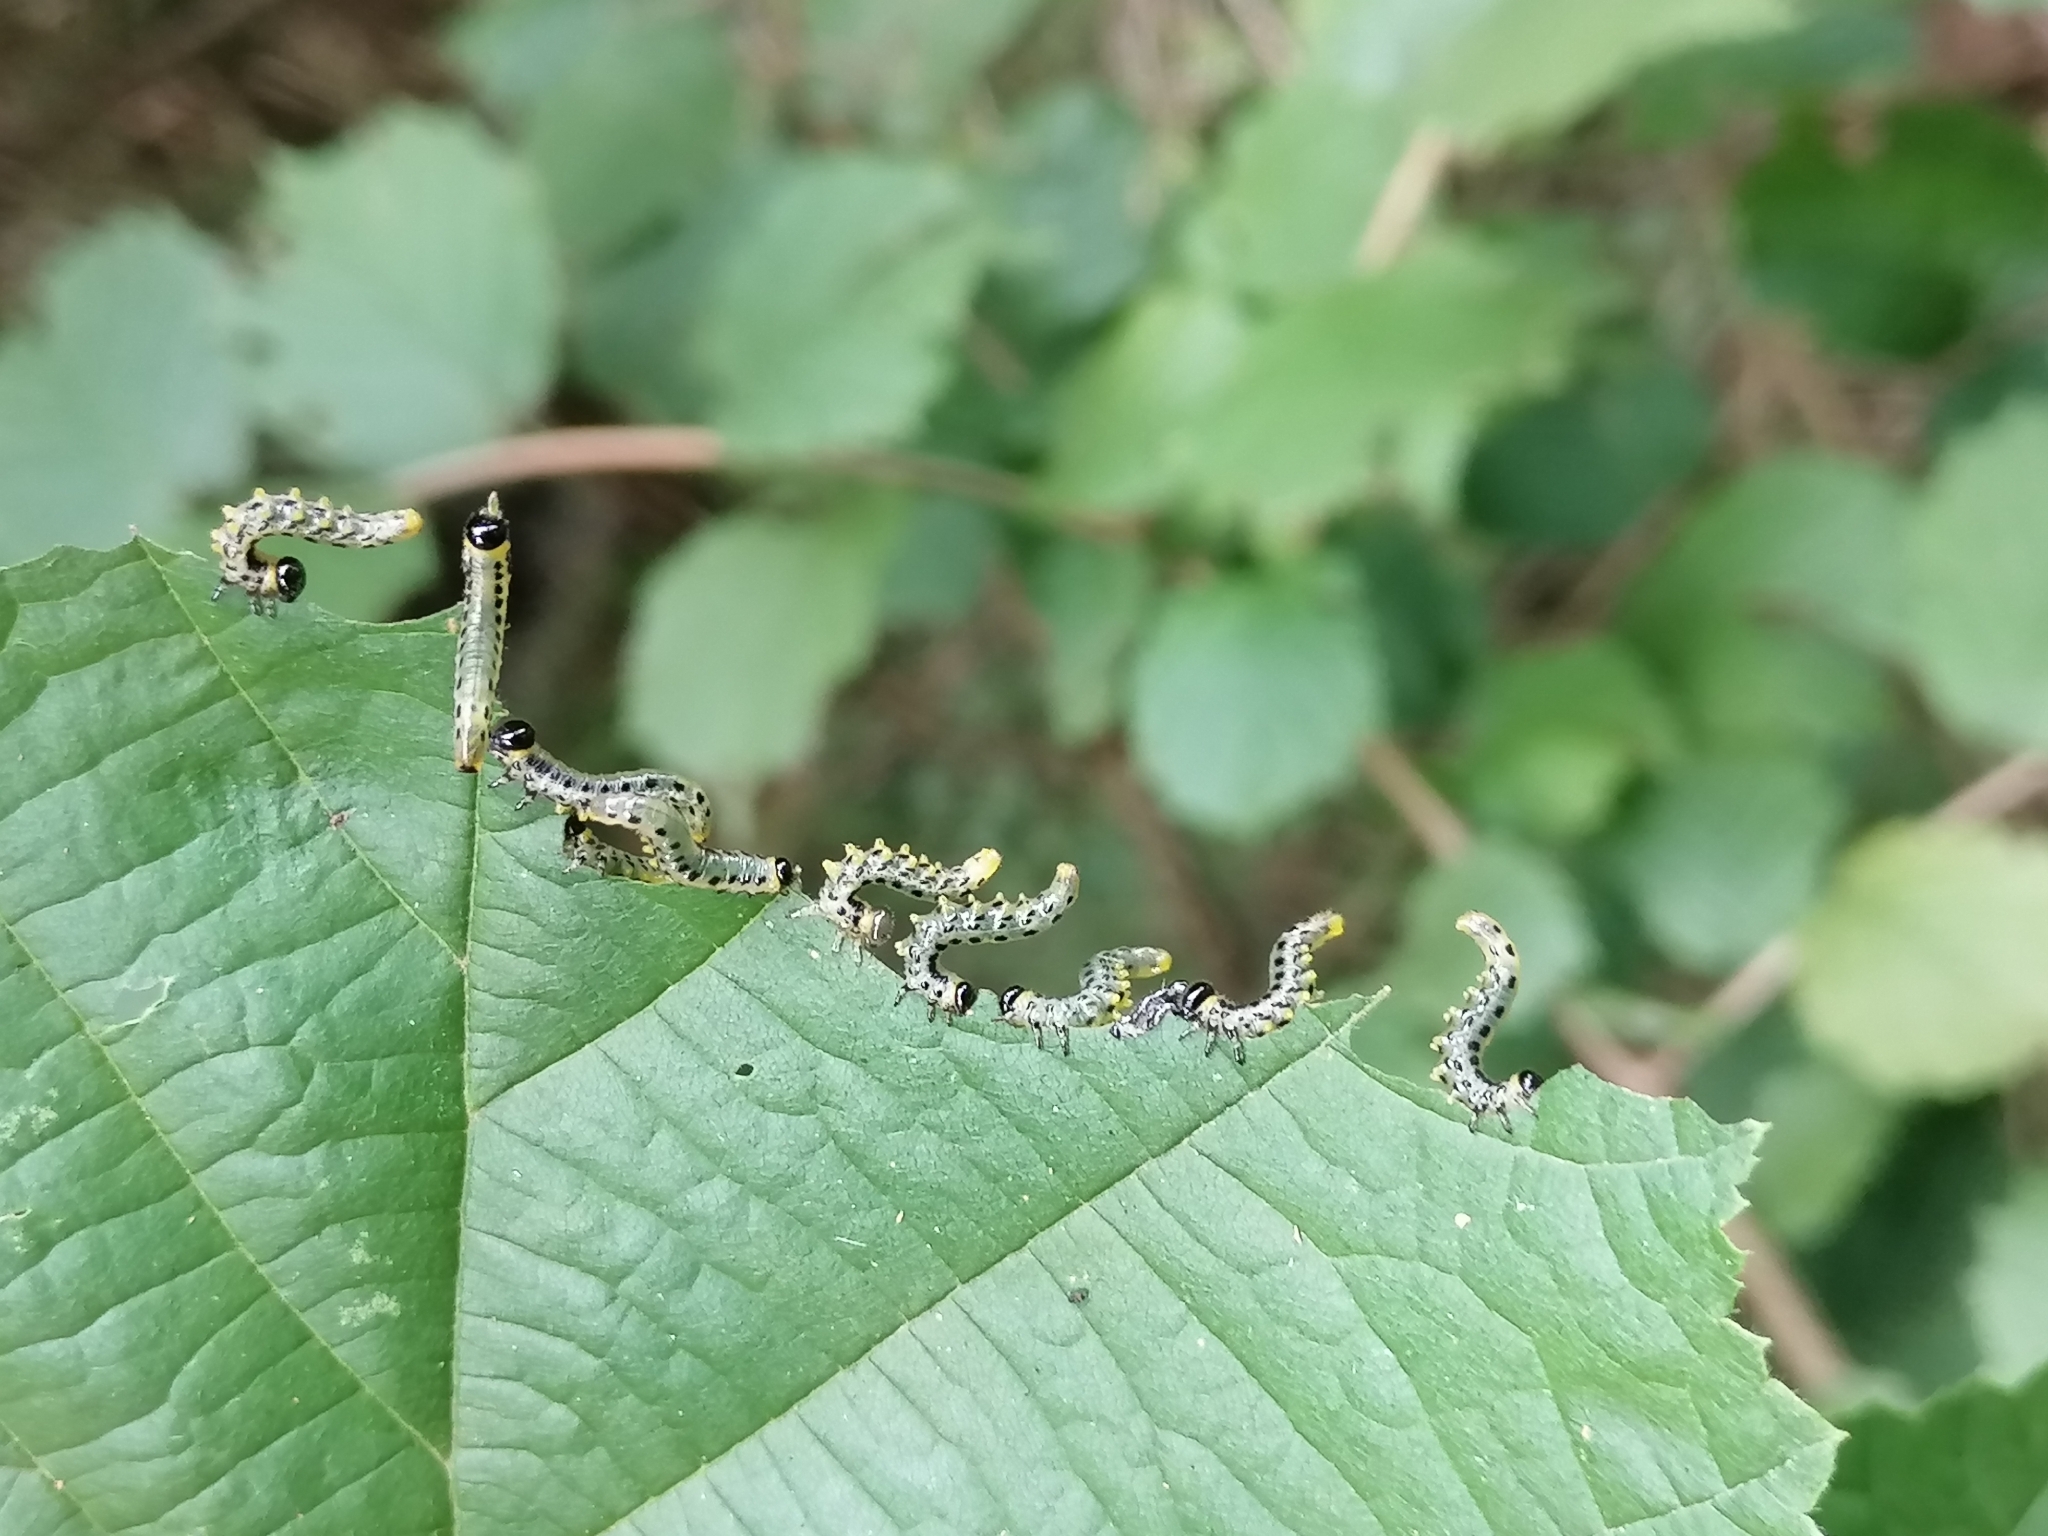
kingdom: Animalia
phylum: Arthropoda
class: Insecta
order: Hymenoptera
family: Tenthredinidae
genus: Craesus
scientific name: Craesus septentrionalis
